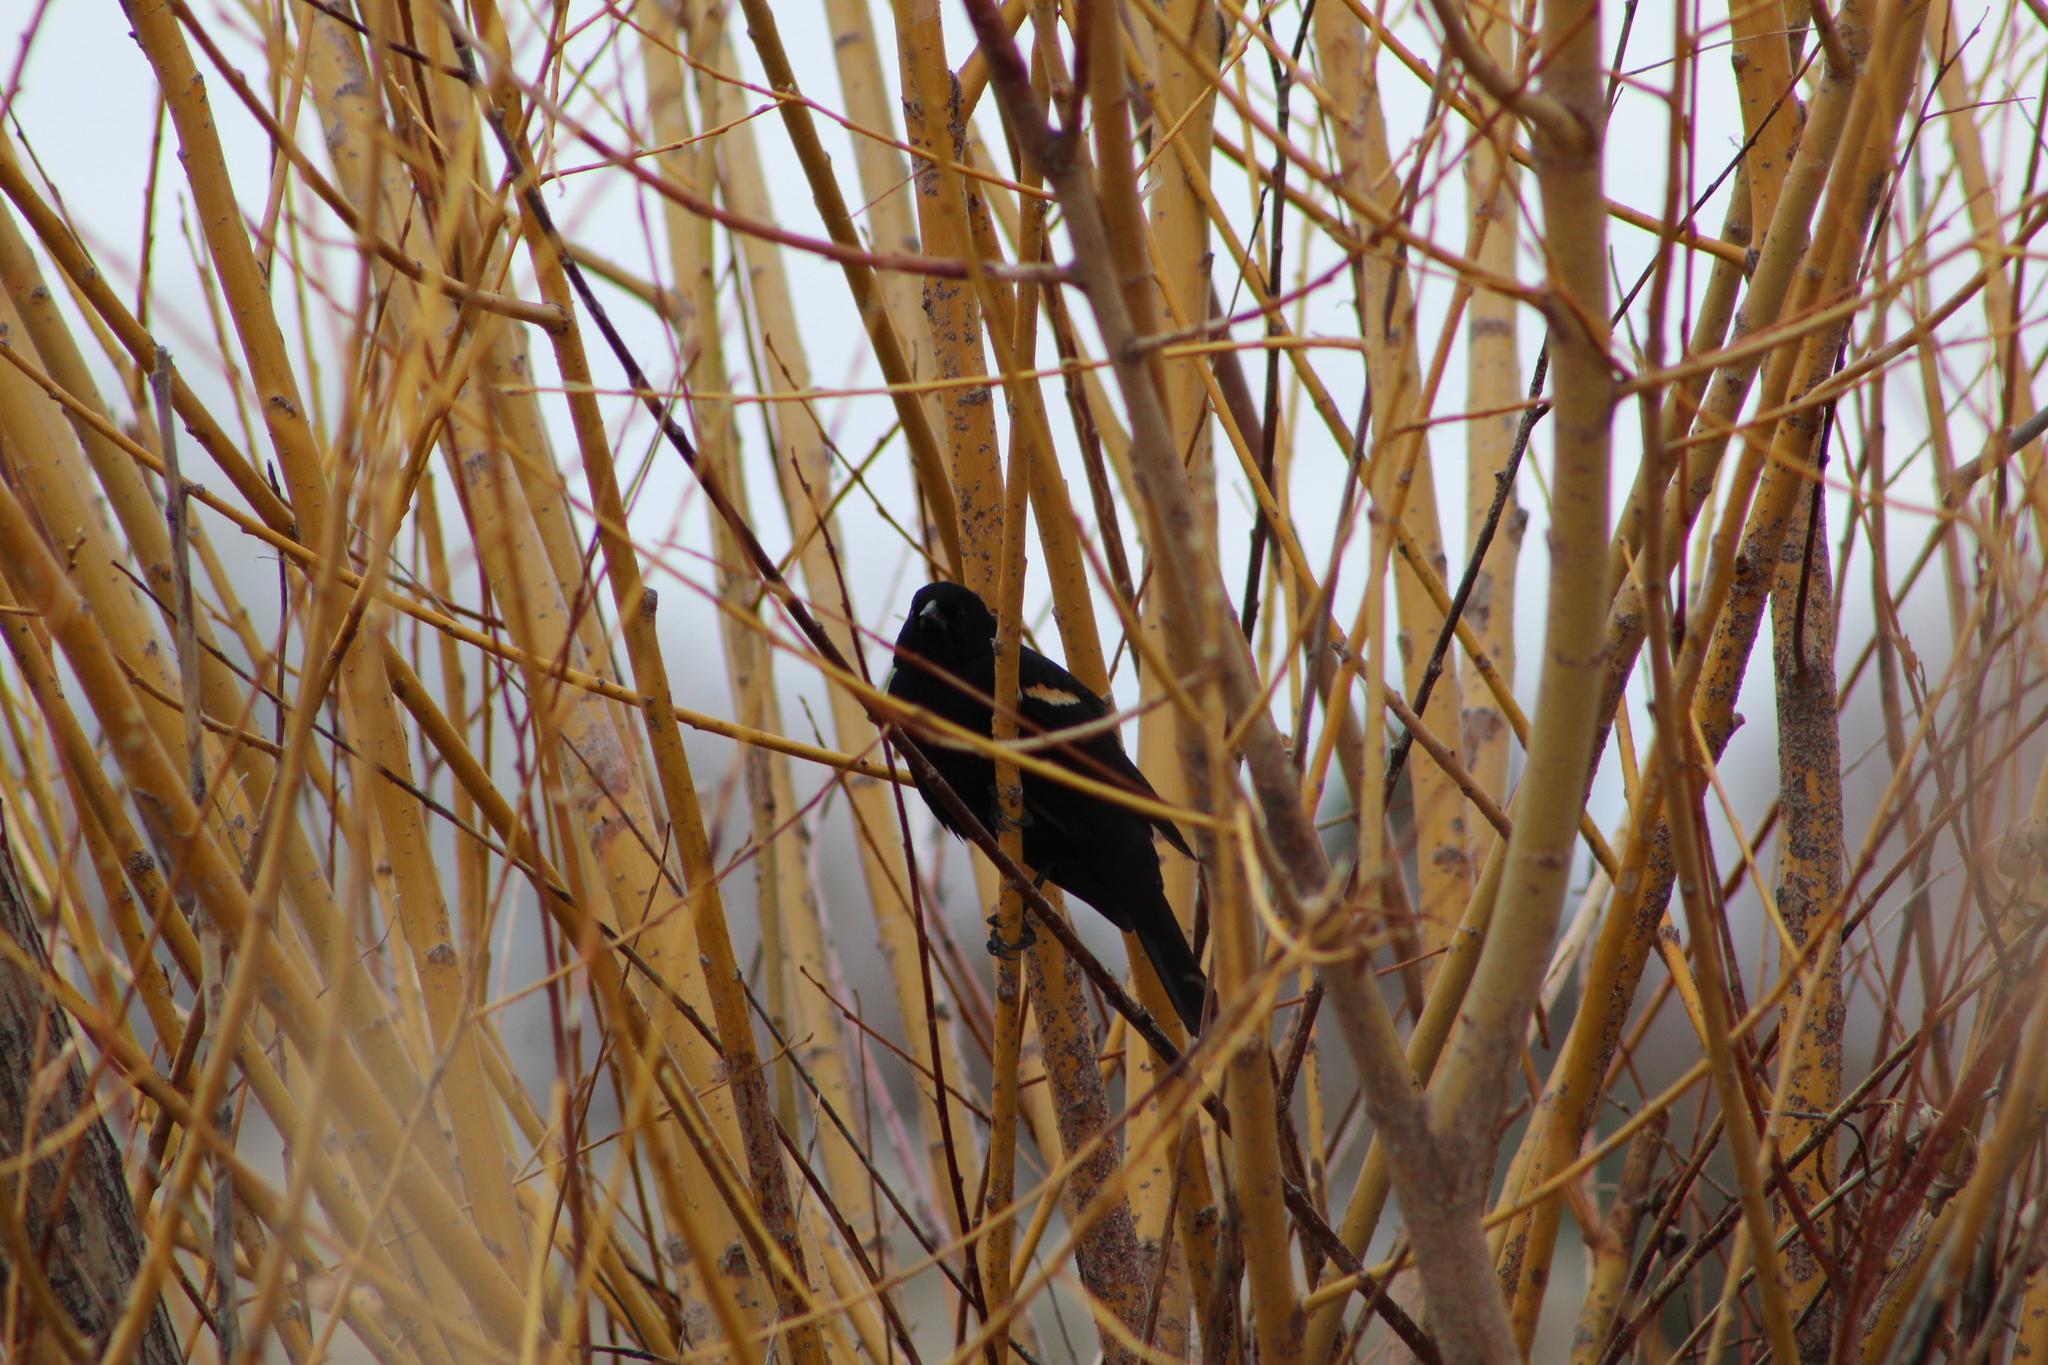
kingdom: Animalia
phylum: Chordata
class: Aves
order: Passeriformes
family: Icteridae
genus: Agelaius
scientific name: Agelaius phoeniceus
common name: Red-winged blackbird
